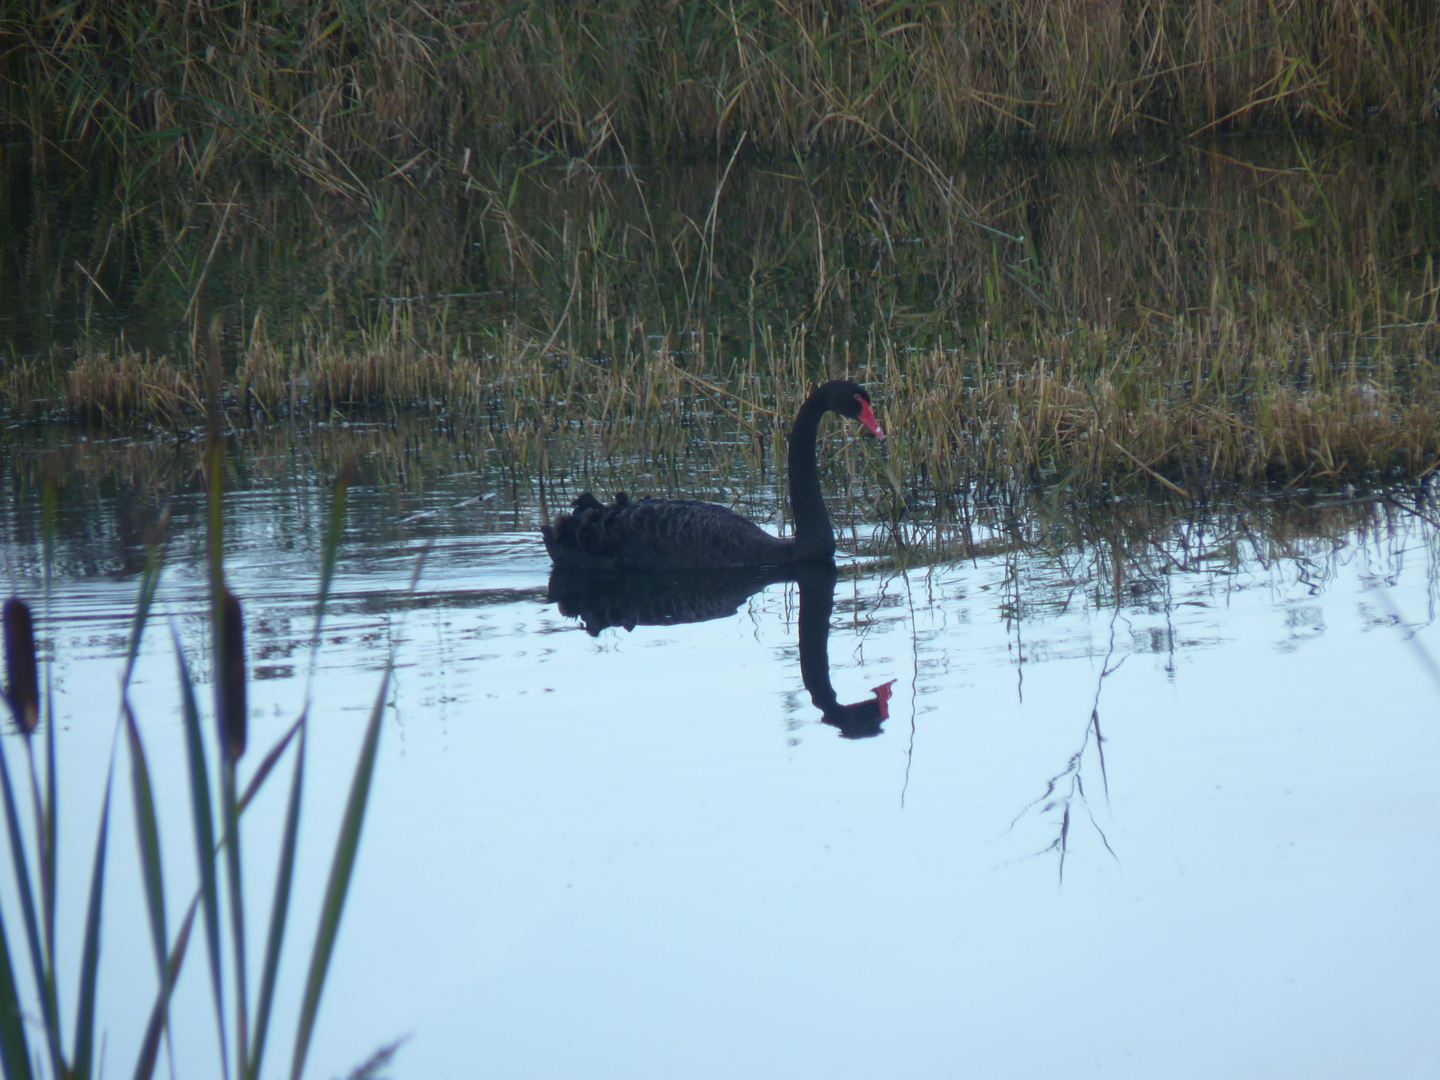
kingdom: Animalia
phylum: Chordata
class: Aves
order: Anseriformes
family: Anatidae
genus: Cygnus
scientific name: Cygnus atratus
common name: Black swan
